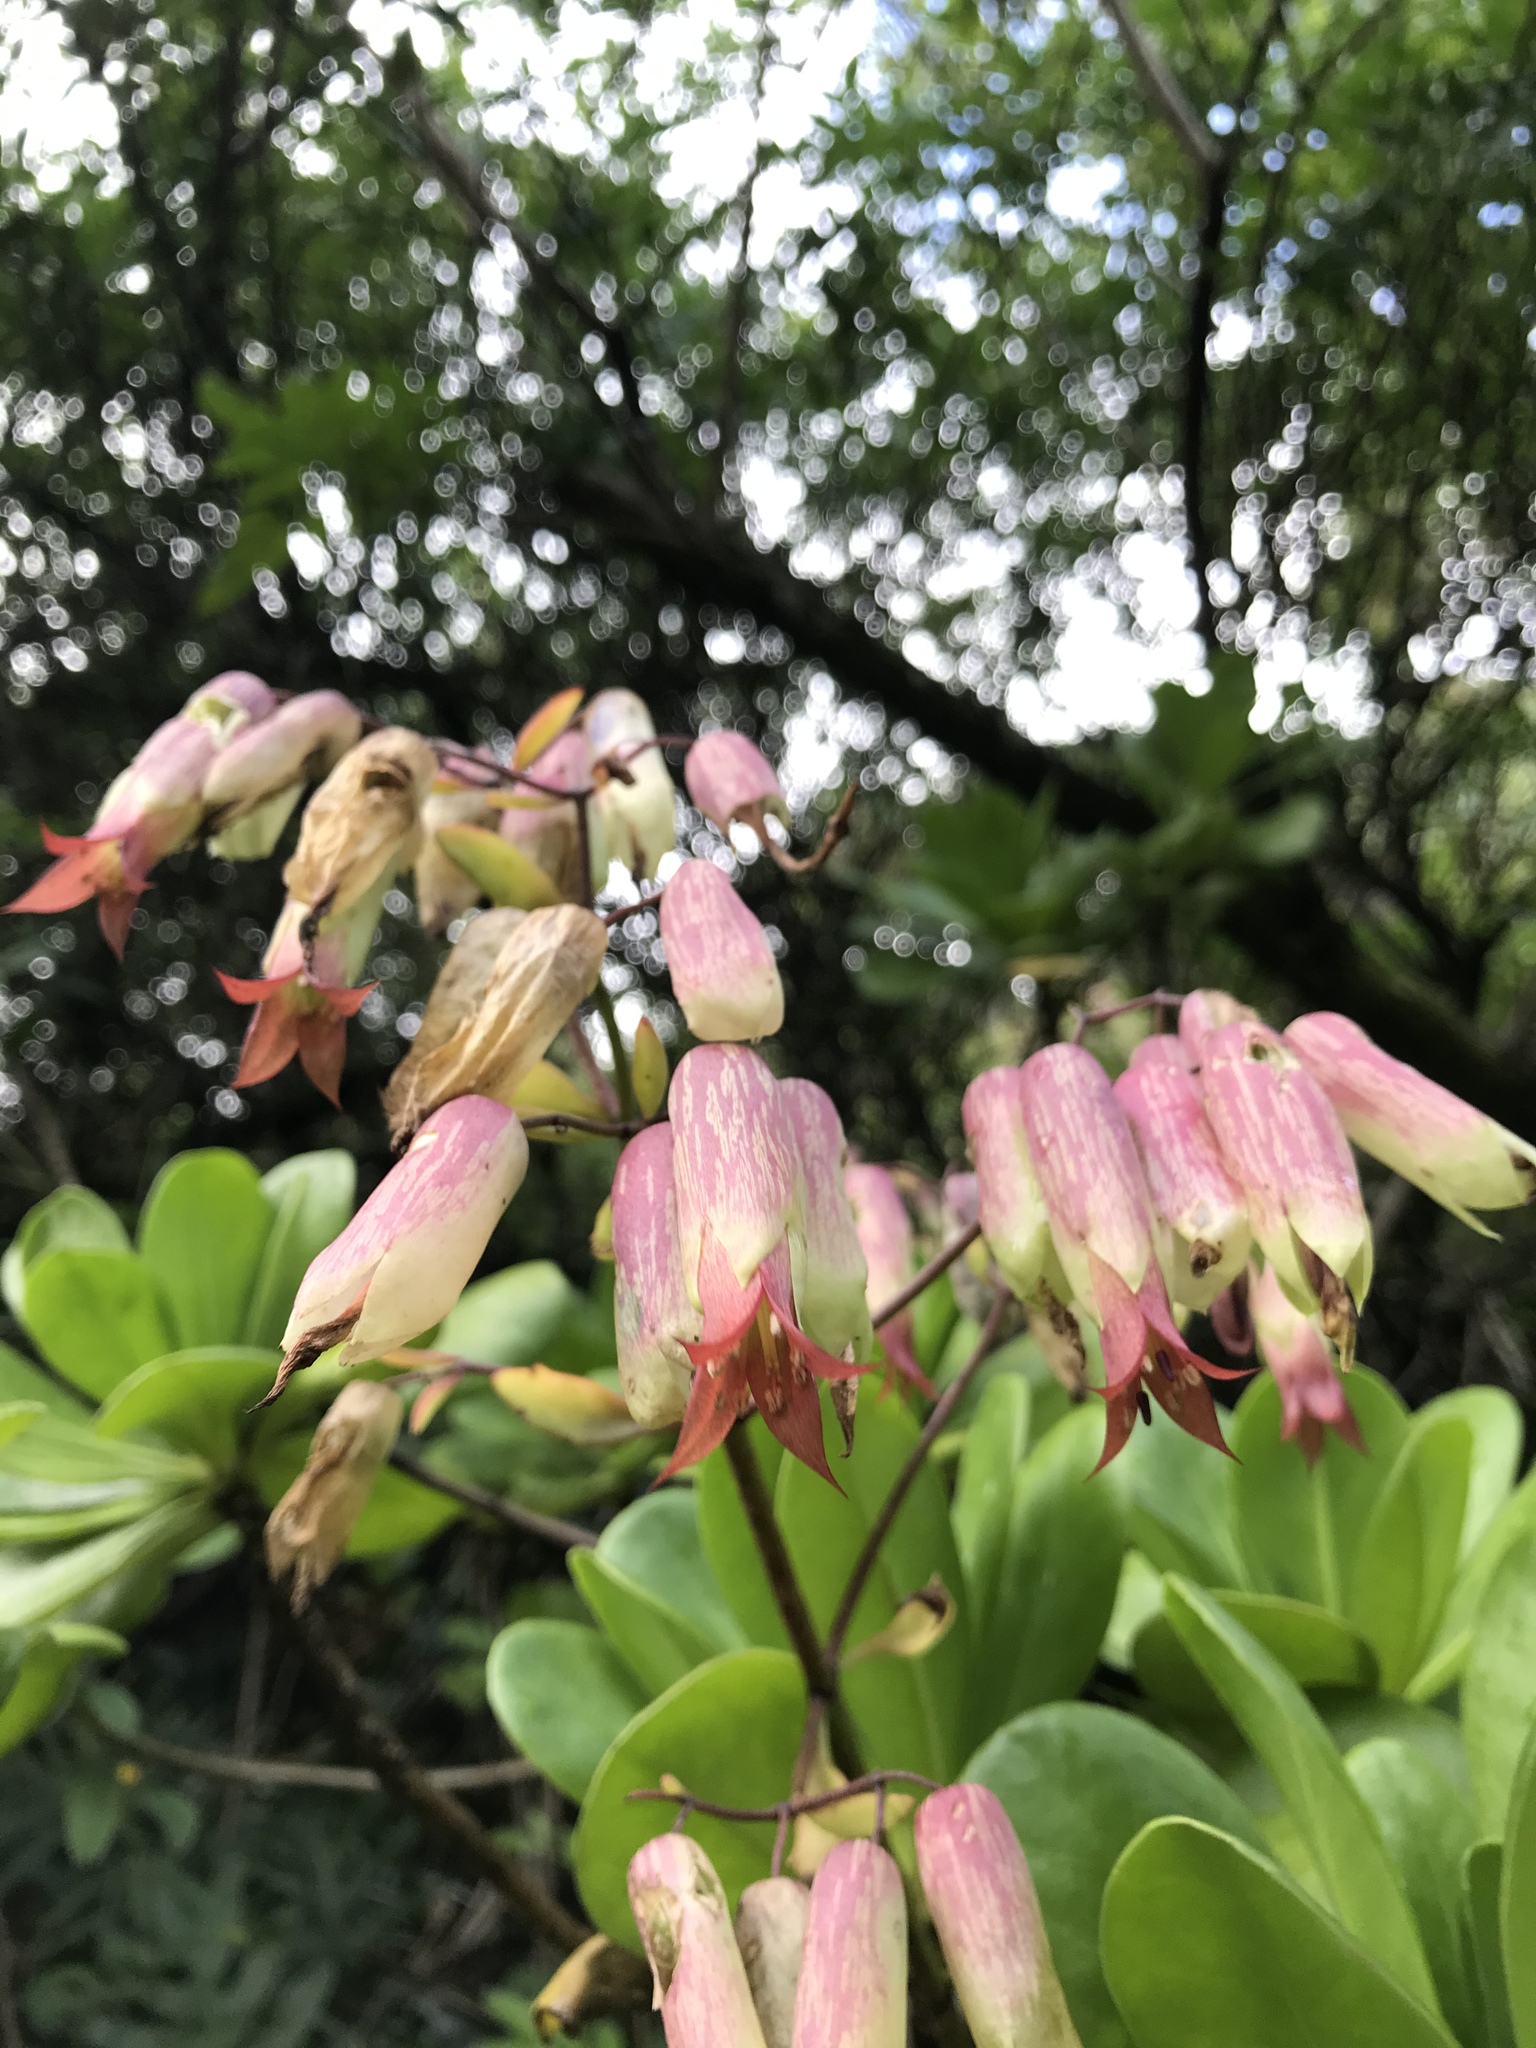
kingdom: Plantae
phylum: Tracheophyta
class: Magnoliopsida
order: Saxifragales
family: Crassulaceae
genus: Kalanchoe
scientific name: Kalanchoe pinnata
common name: Cathedral bells
